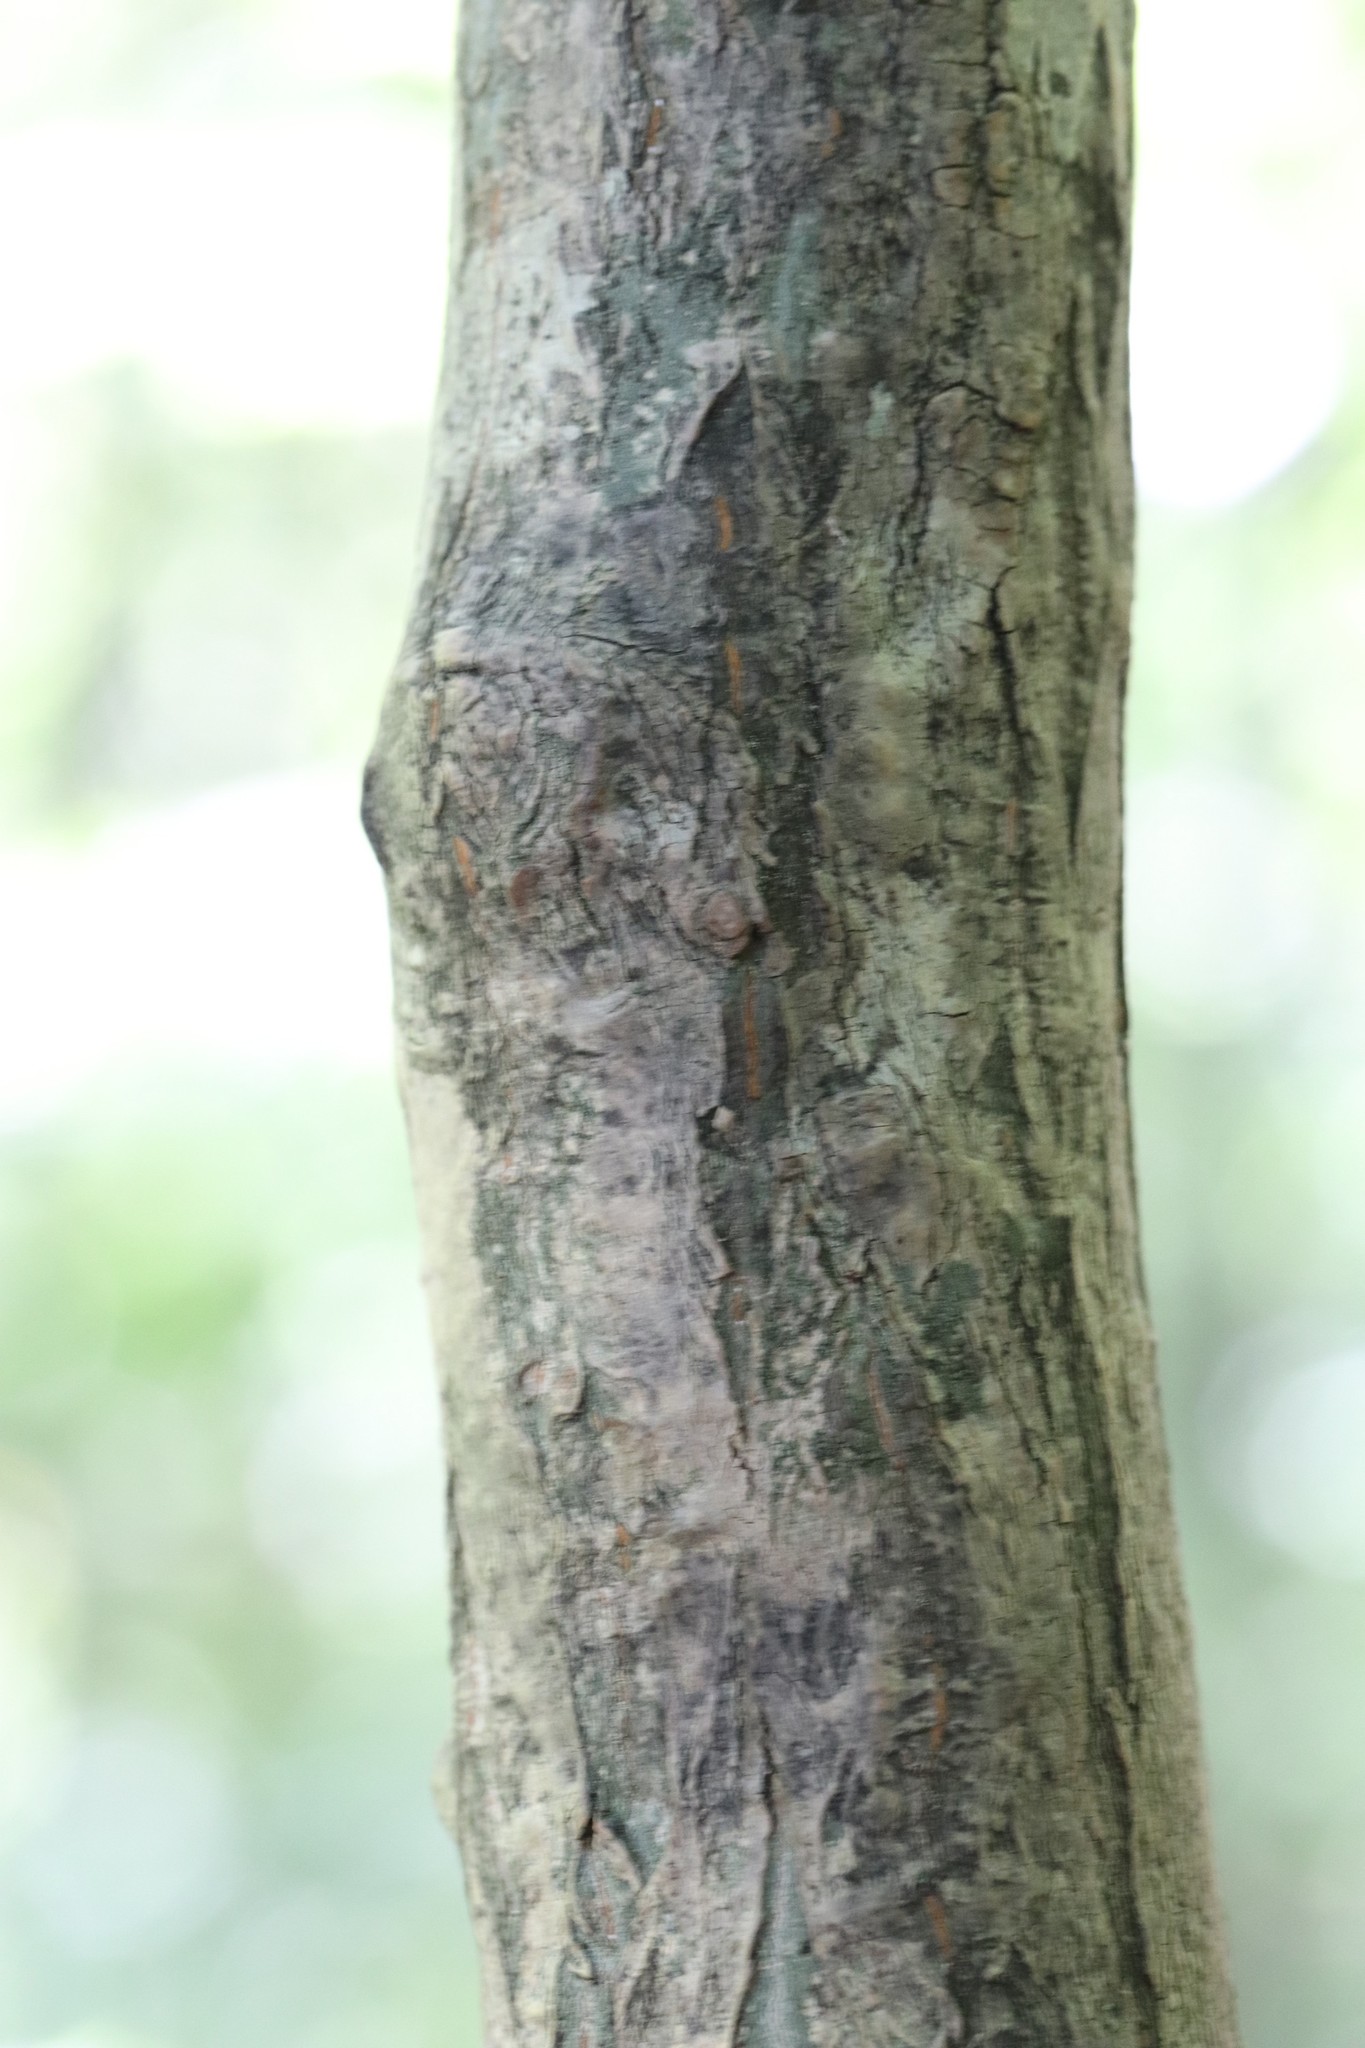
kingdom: Plantae
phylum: Tracheophyta
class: Magnoliopsida
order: Sapindales
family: Sapindaceae
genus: Acer
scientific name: Acer pseudosieboldianum
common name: Korean maple
